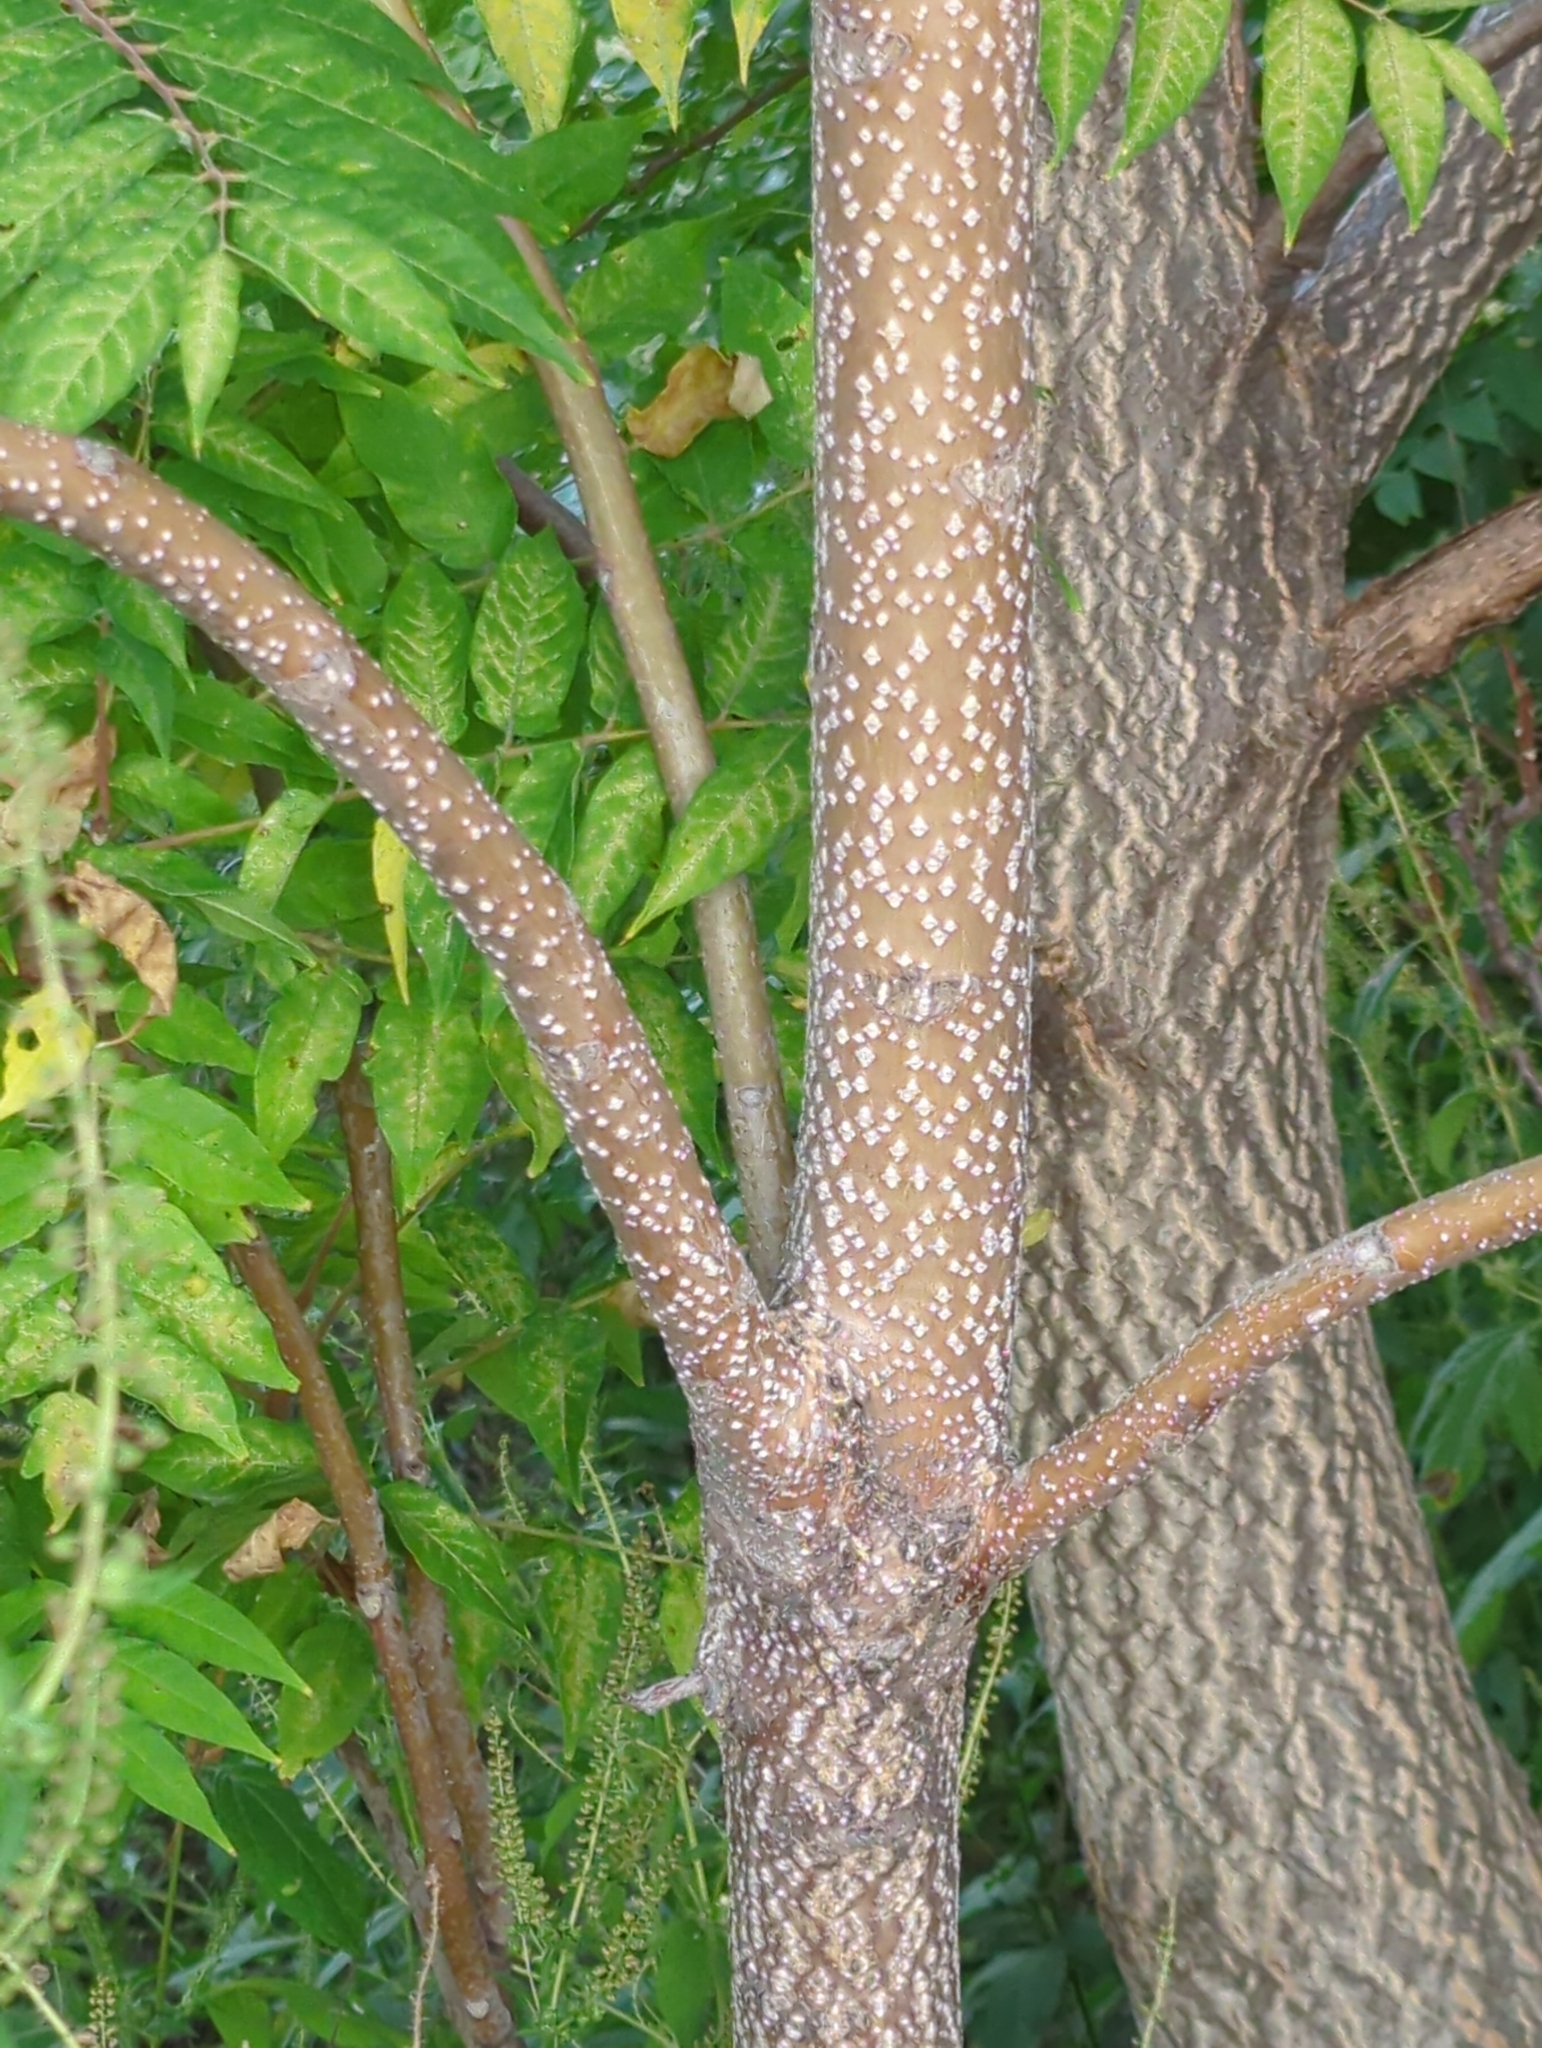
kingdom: Plantae
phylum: Tracheophyta
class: Magnoliopsida
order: Sapindales
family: Simaroubaceae
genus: Ailanthus
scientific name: Ailanthus altissima
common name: Tree-of-heaven
